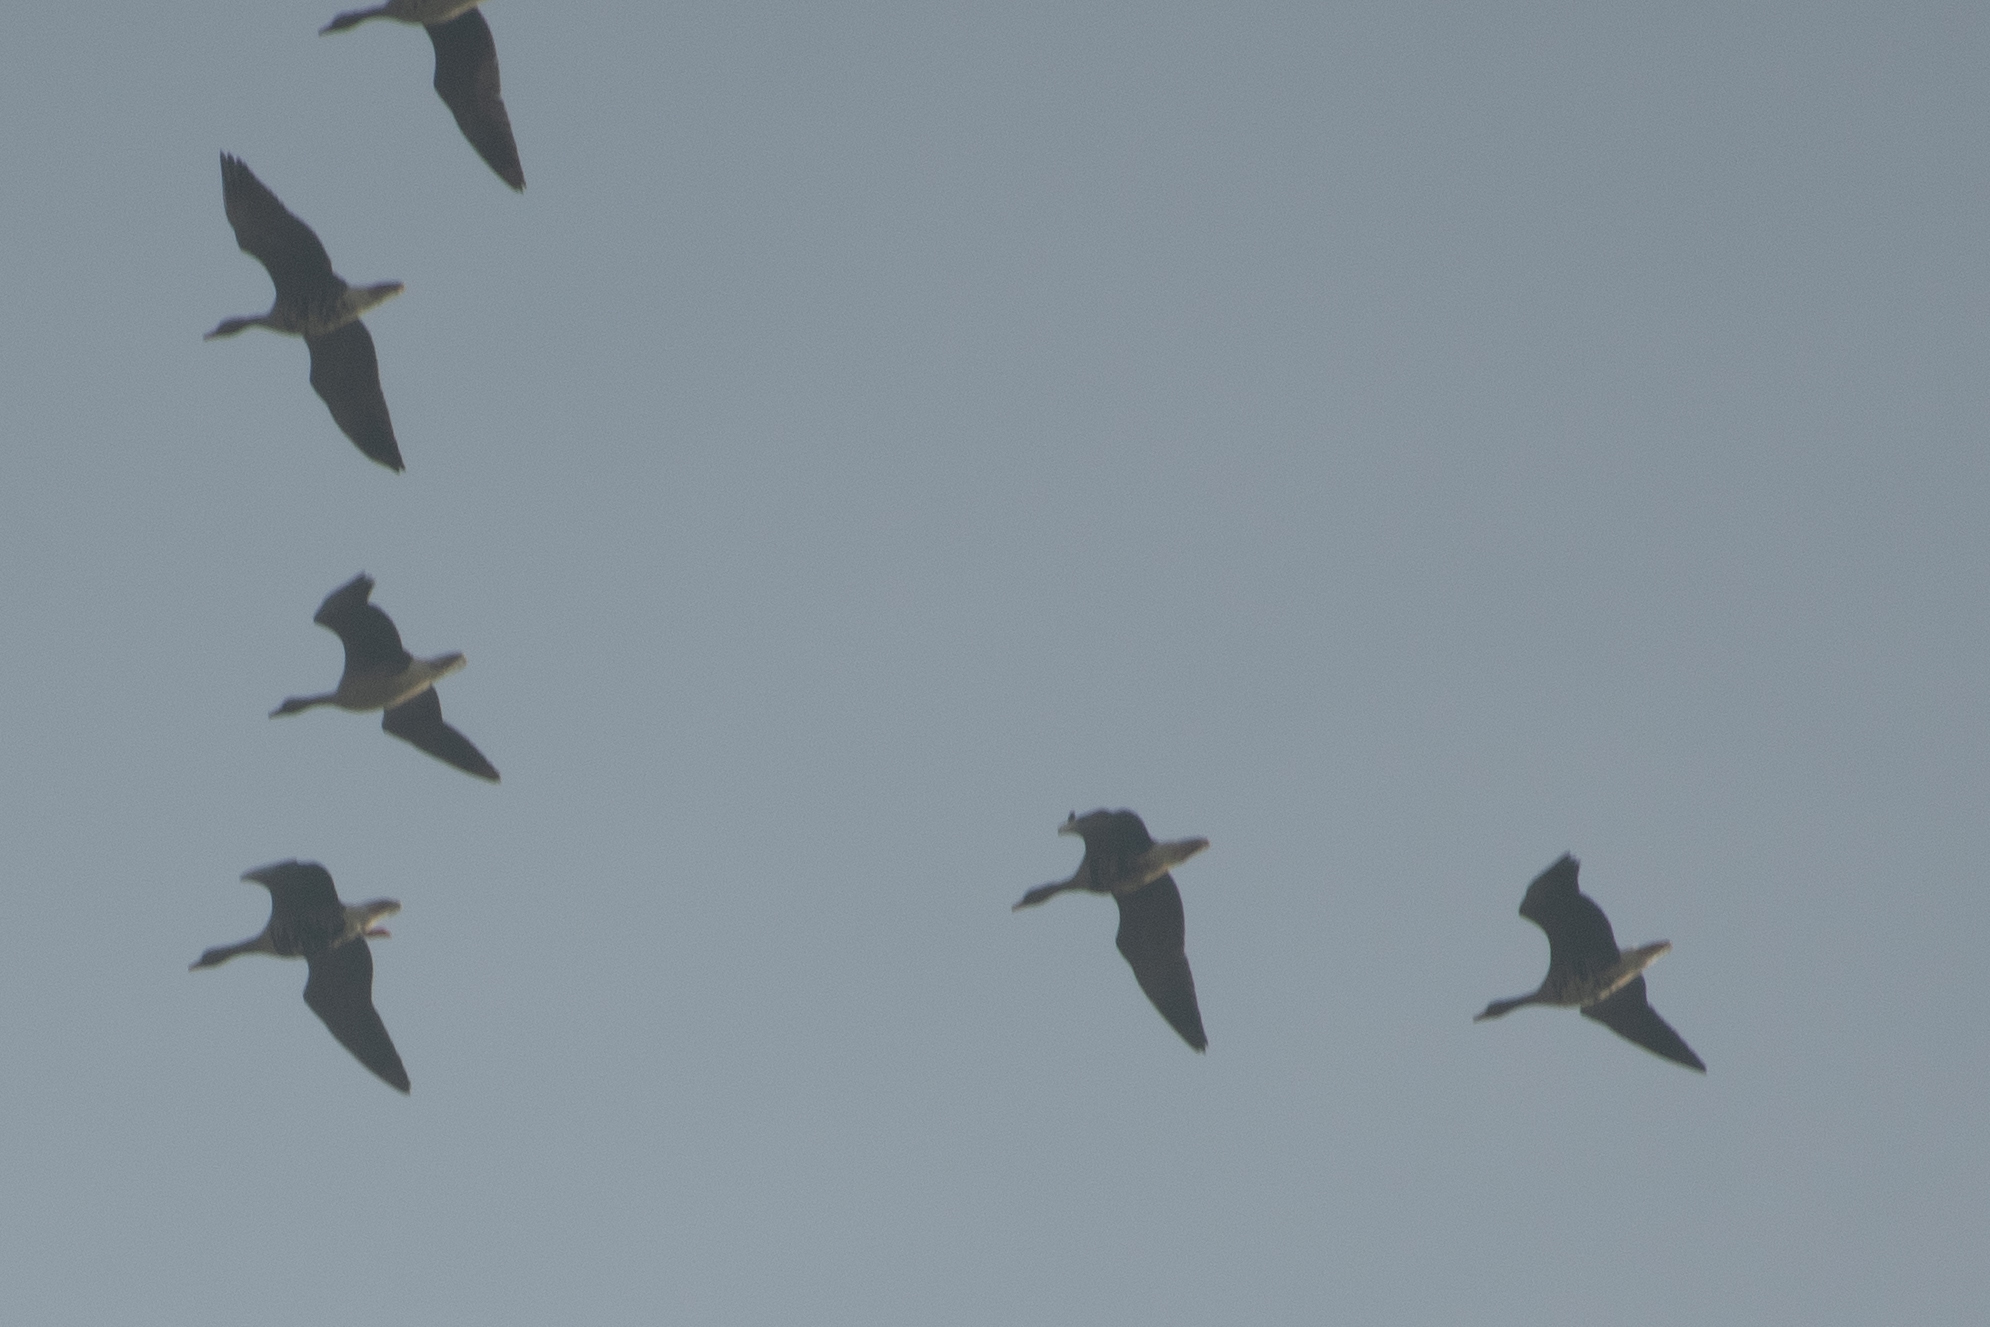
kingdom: Animalia
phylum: Chordata
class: Aves
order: Anseriformes
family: Anatidae
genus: Anser
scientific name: Anser caerulescens
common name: Snow goose
